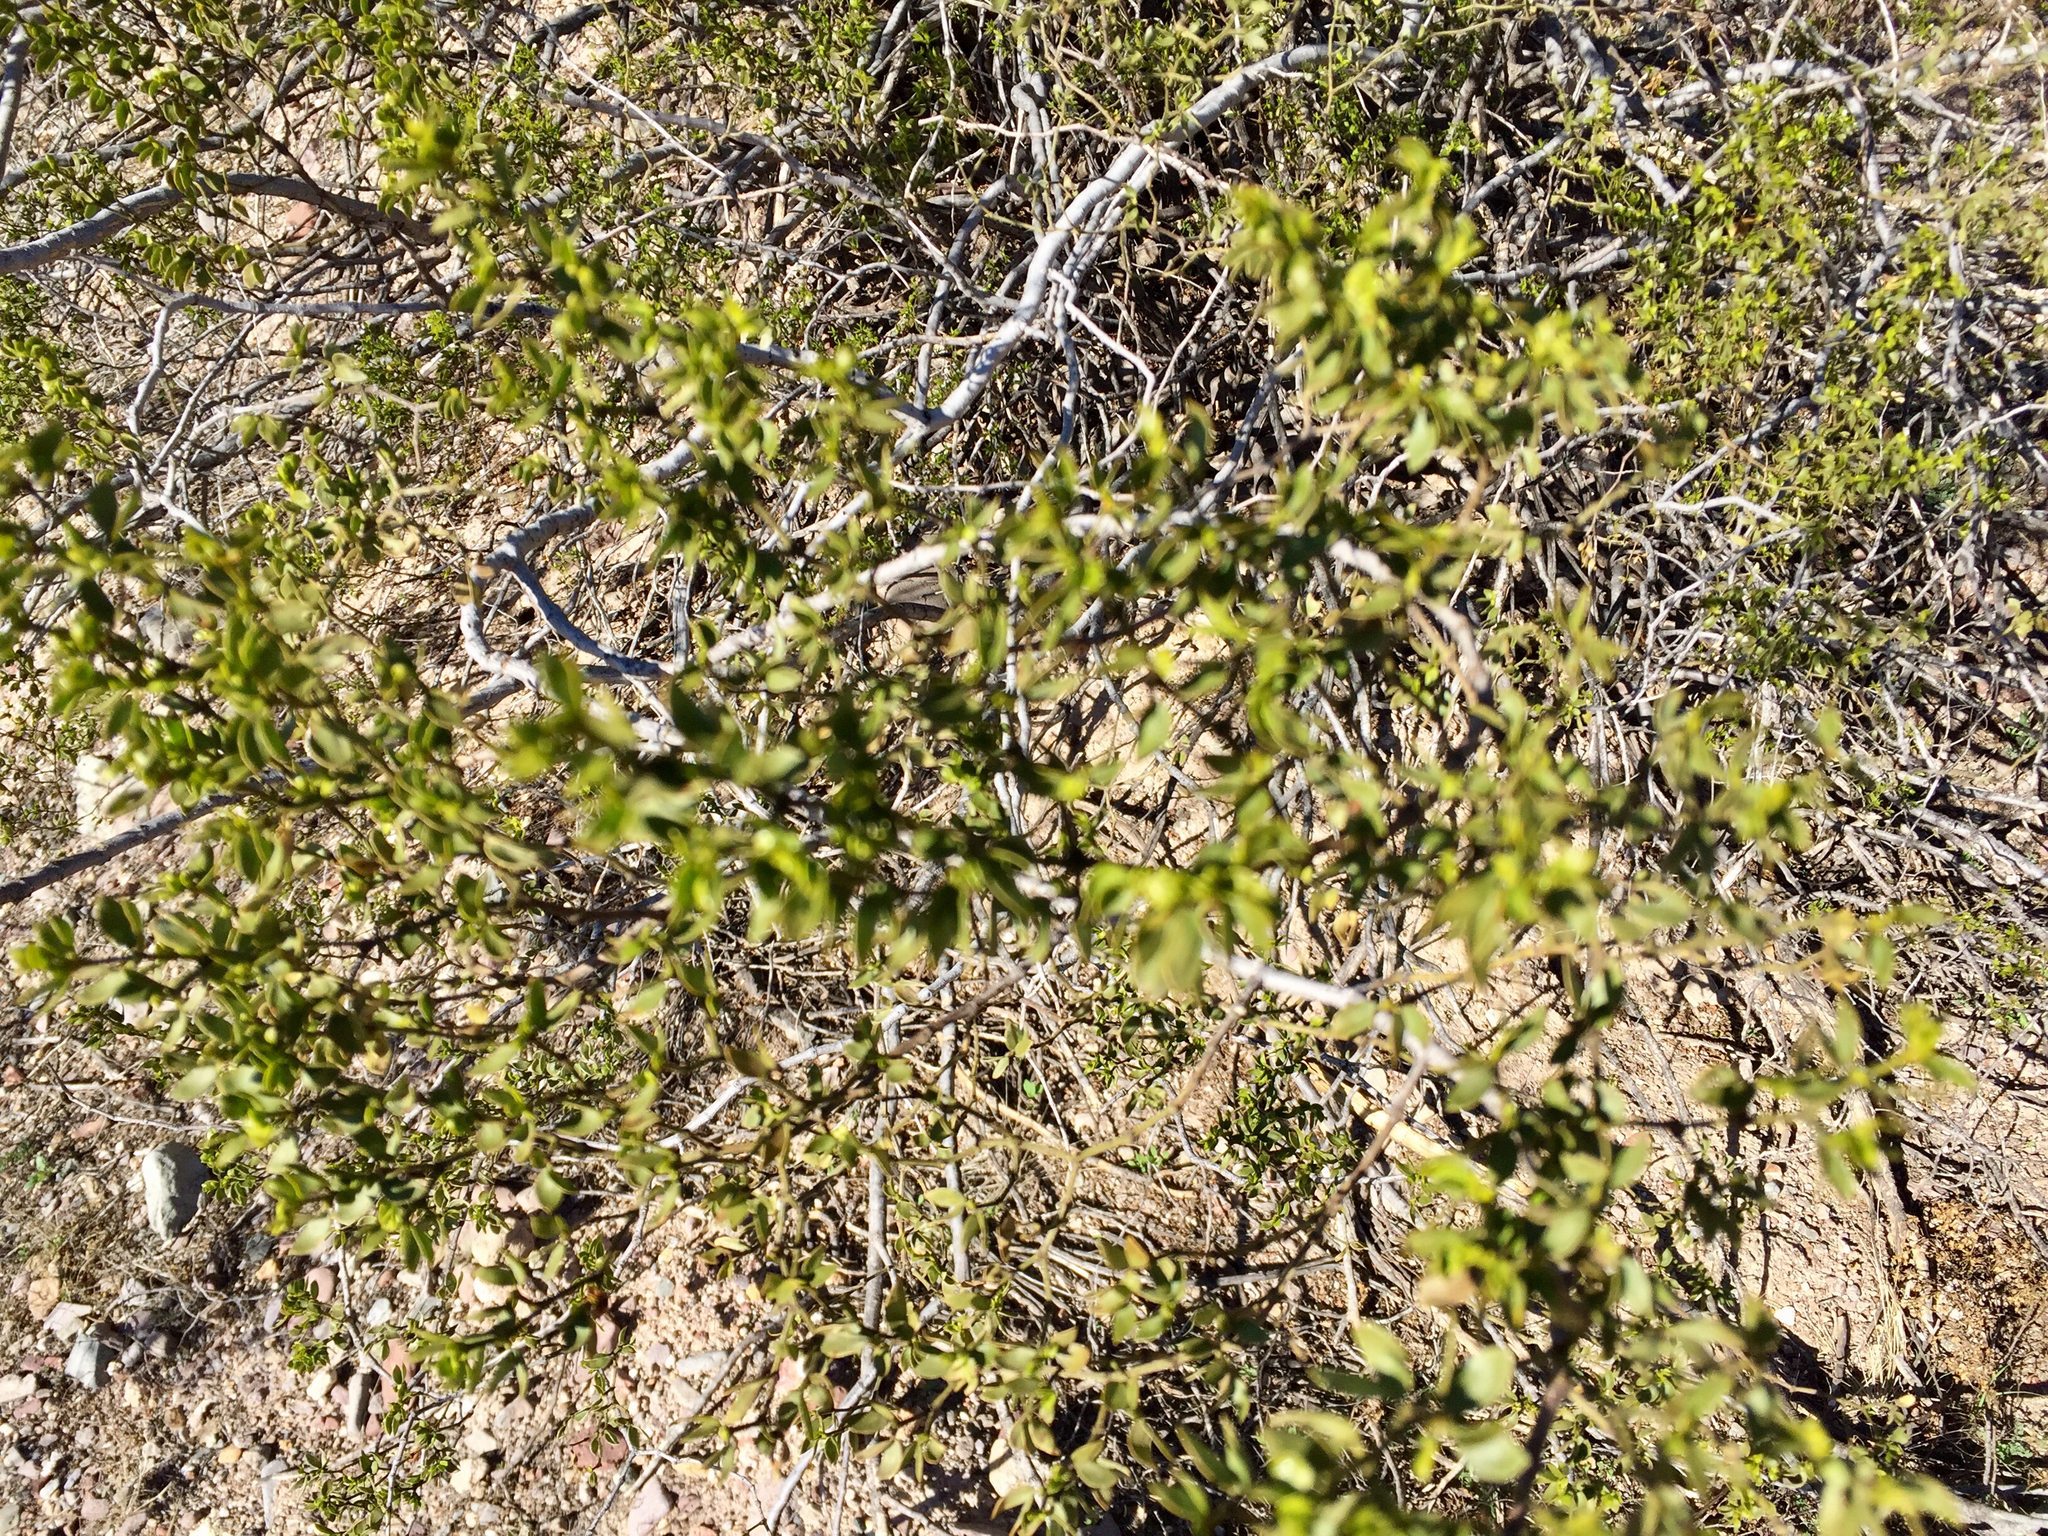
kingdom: Plantae
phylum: Tracheophyta
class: Magnoliopsida
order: Zygophyllales
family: Zygophyllaceae
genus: Larrea
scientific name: Larrea tridentata
